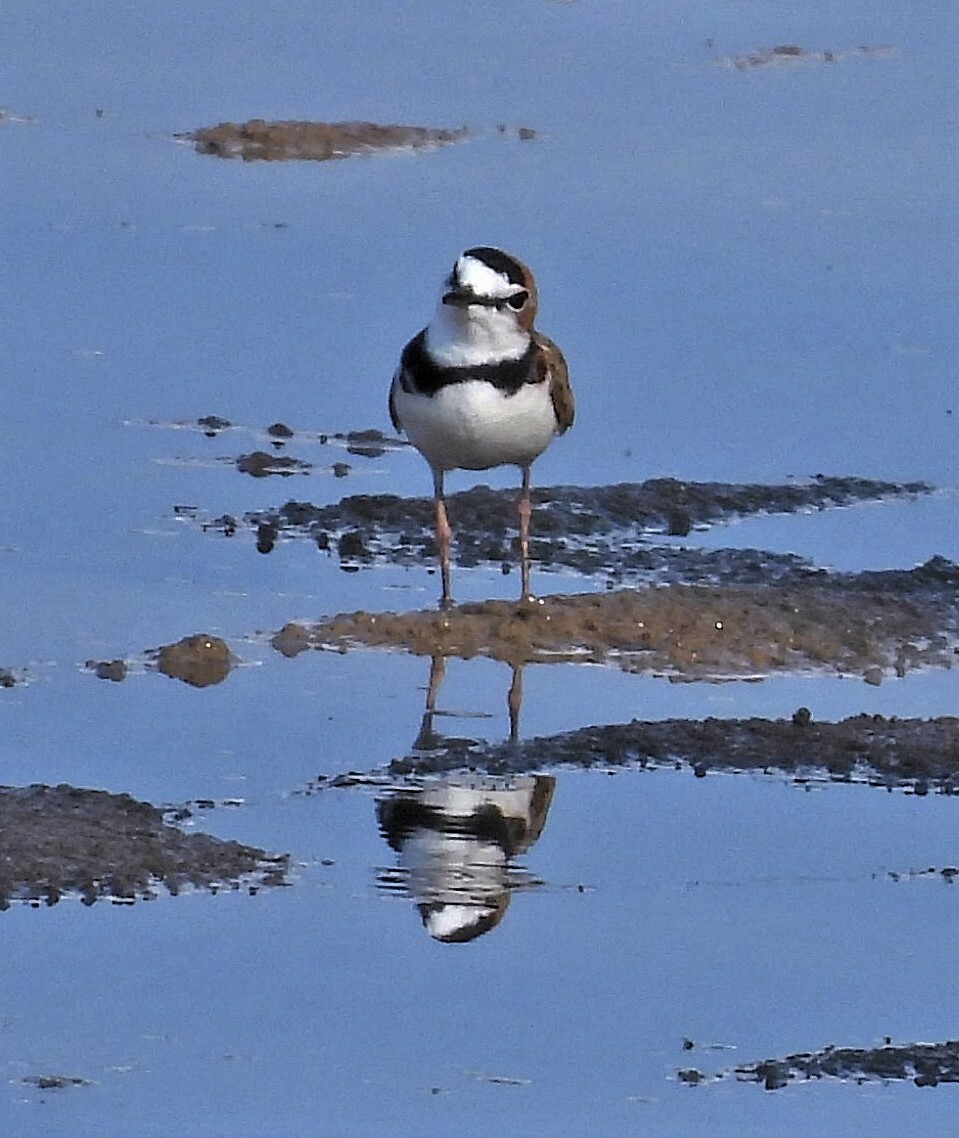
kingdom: Animalia
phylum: Chordata
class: Aves
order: Charadriiformes
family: Charadriidae
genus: Anarhynchus
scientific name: Anarhynchus
